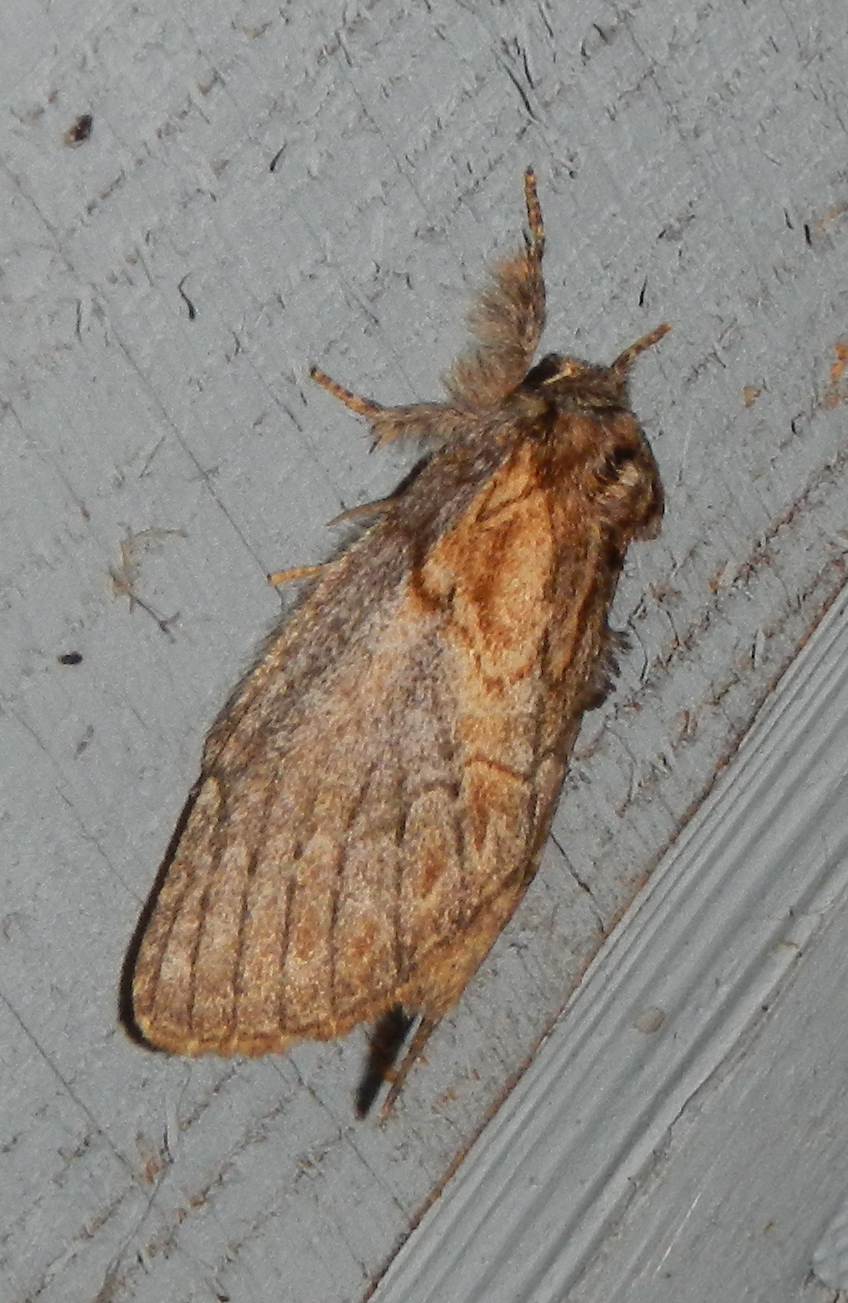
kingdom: Animalia
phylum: Arthropoda
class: Insecta
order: Lepidoptera
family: Notodontidae
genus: Peridea
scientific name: Peridea basitriens
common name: Oval-based prominent
